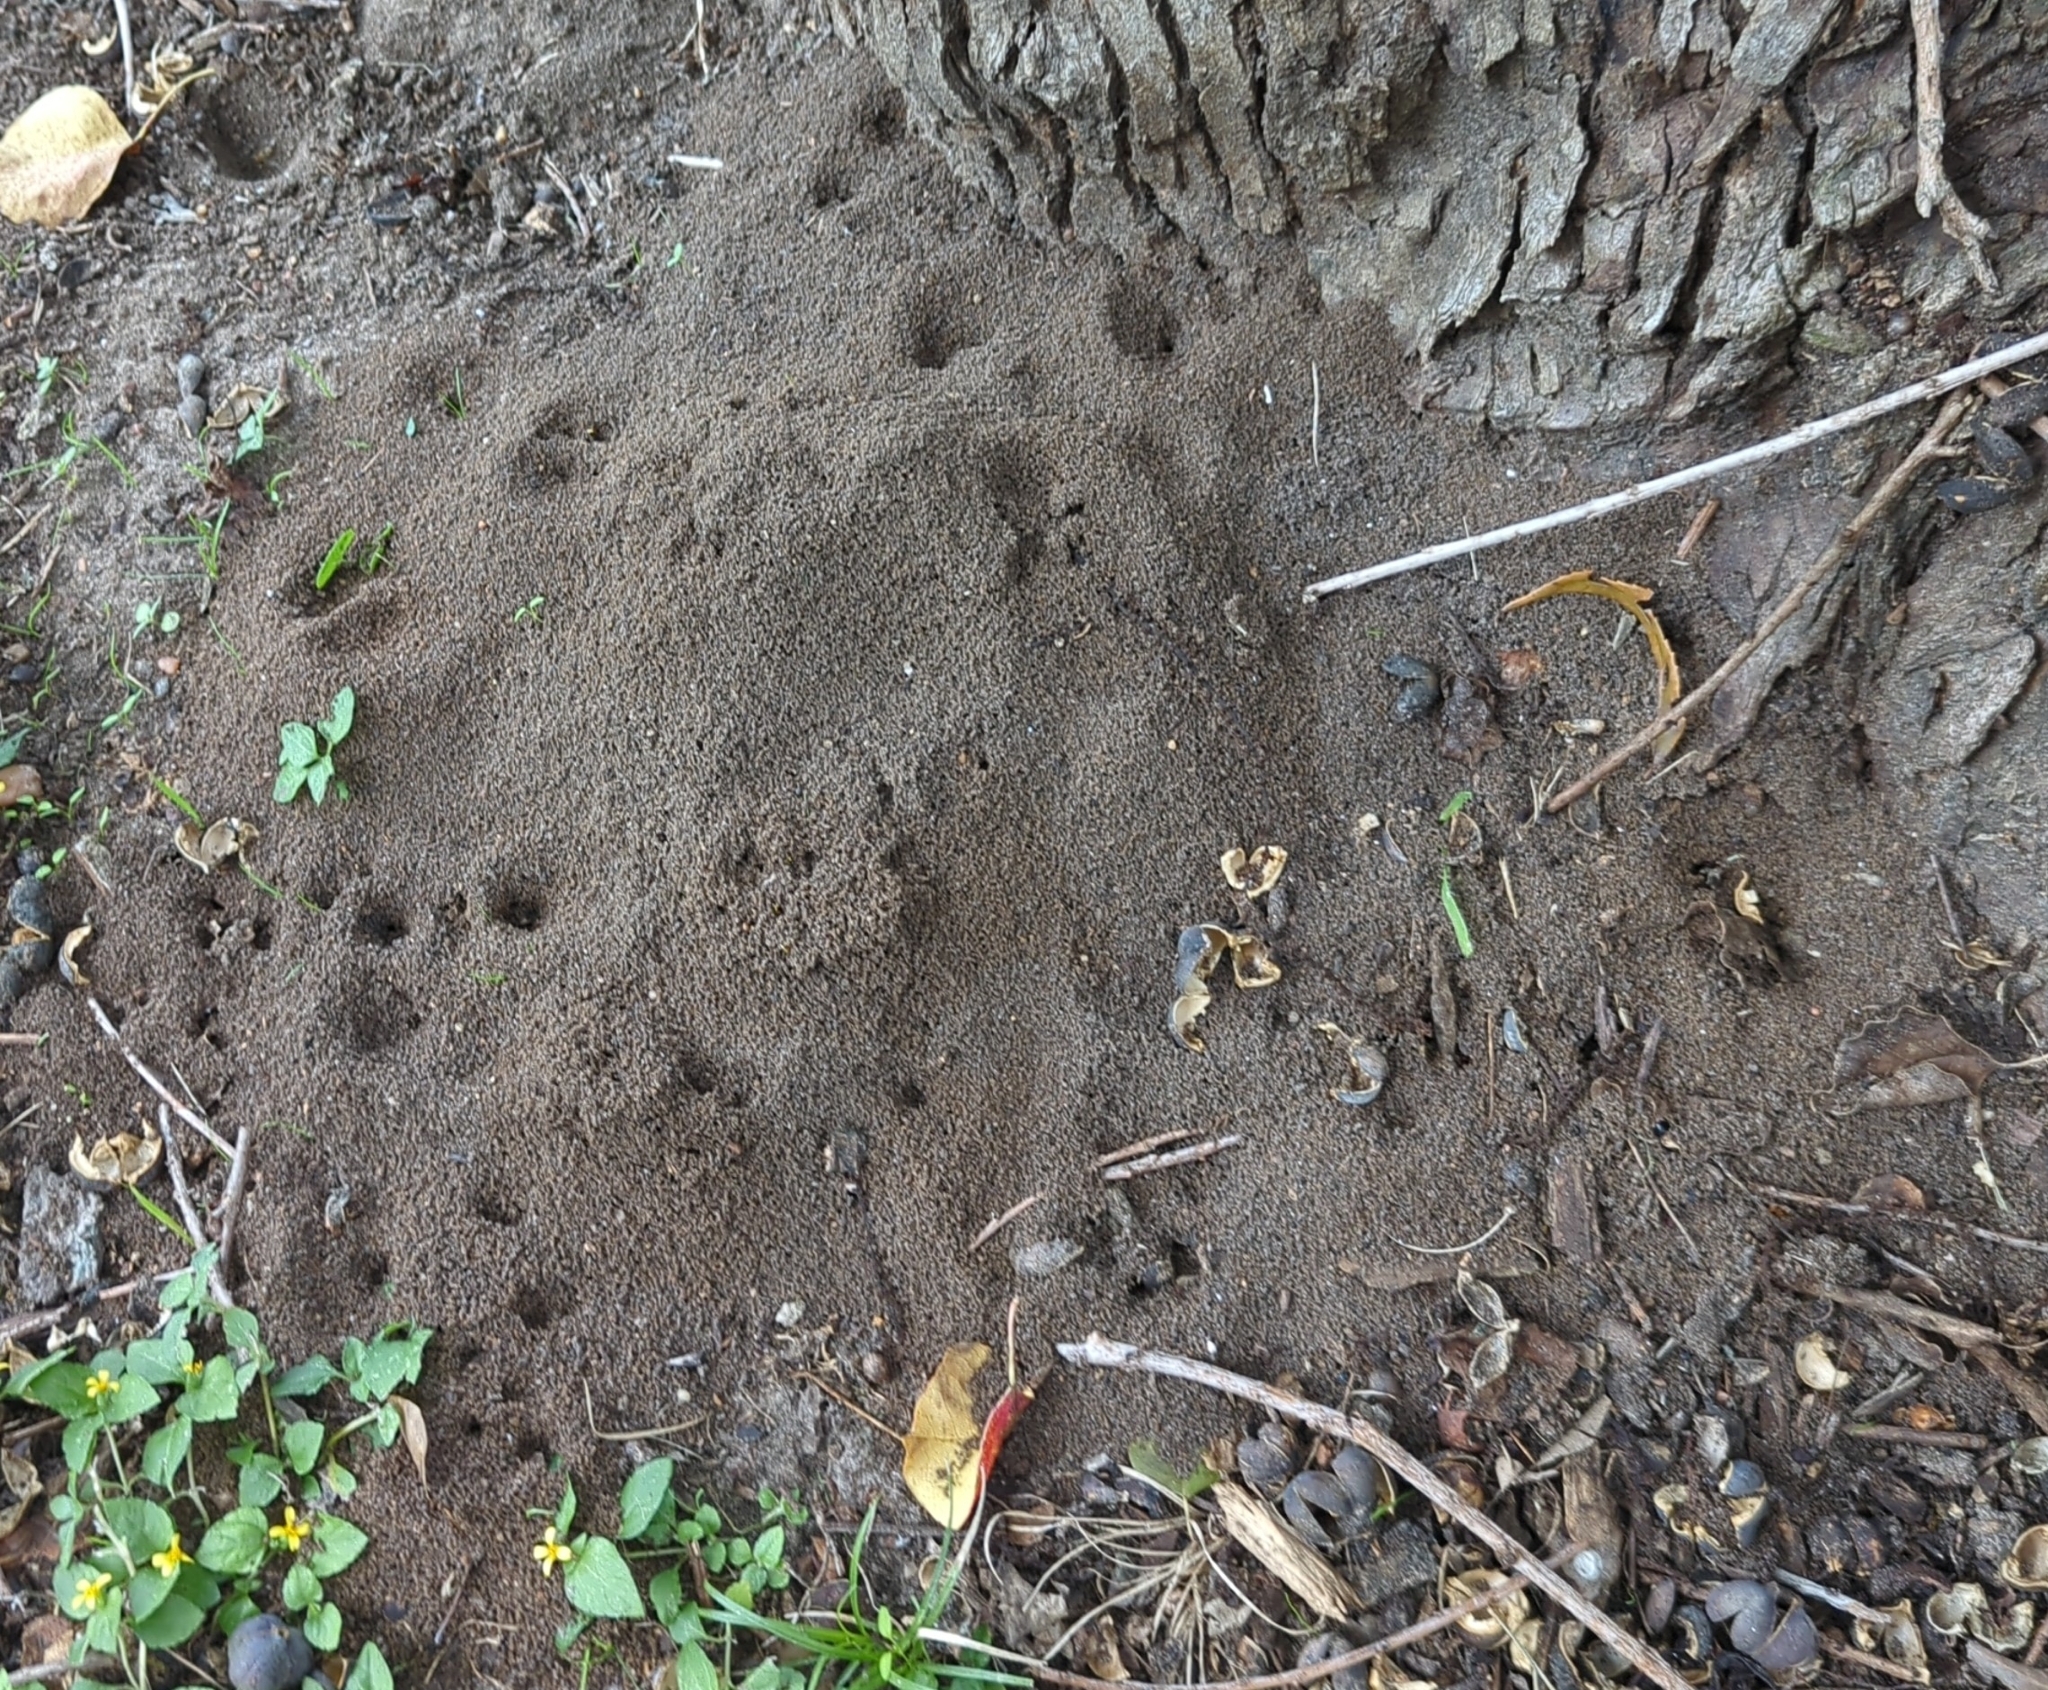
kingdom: Animalia
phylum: Arthropoda
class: Insecta
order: Hymenoptera
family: Formicidae
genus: Solenopsis
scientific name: Solenopsis invicta
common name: Red imported fire ant
